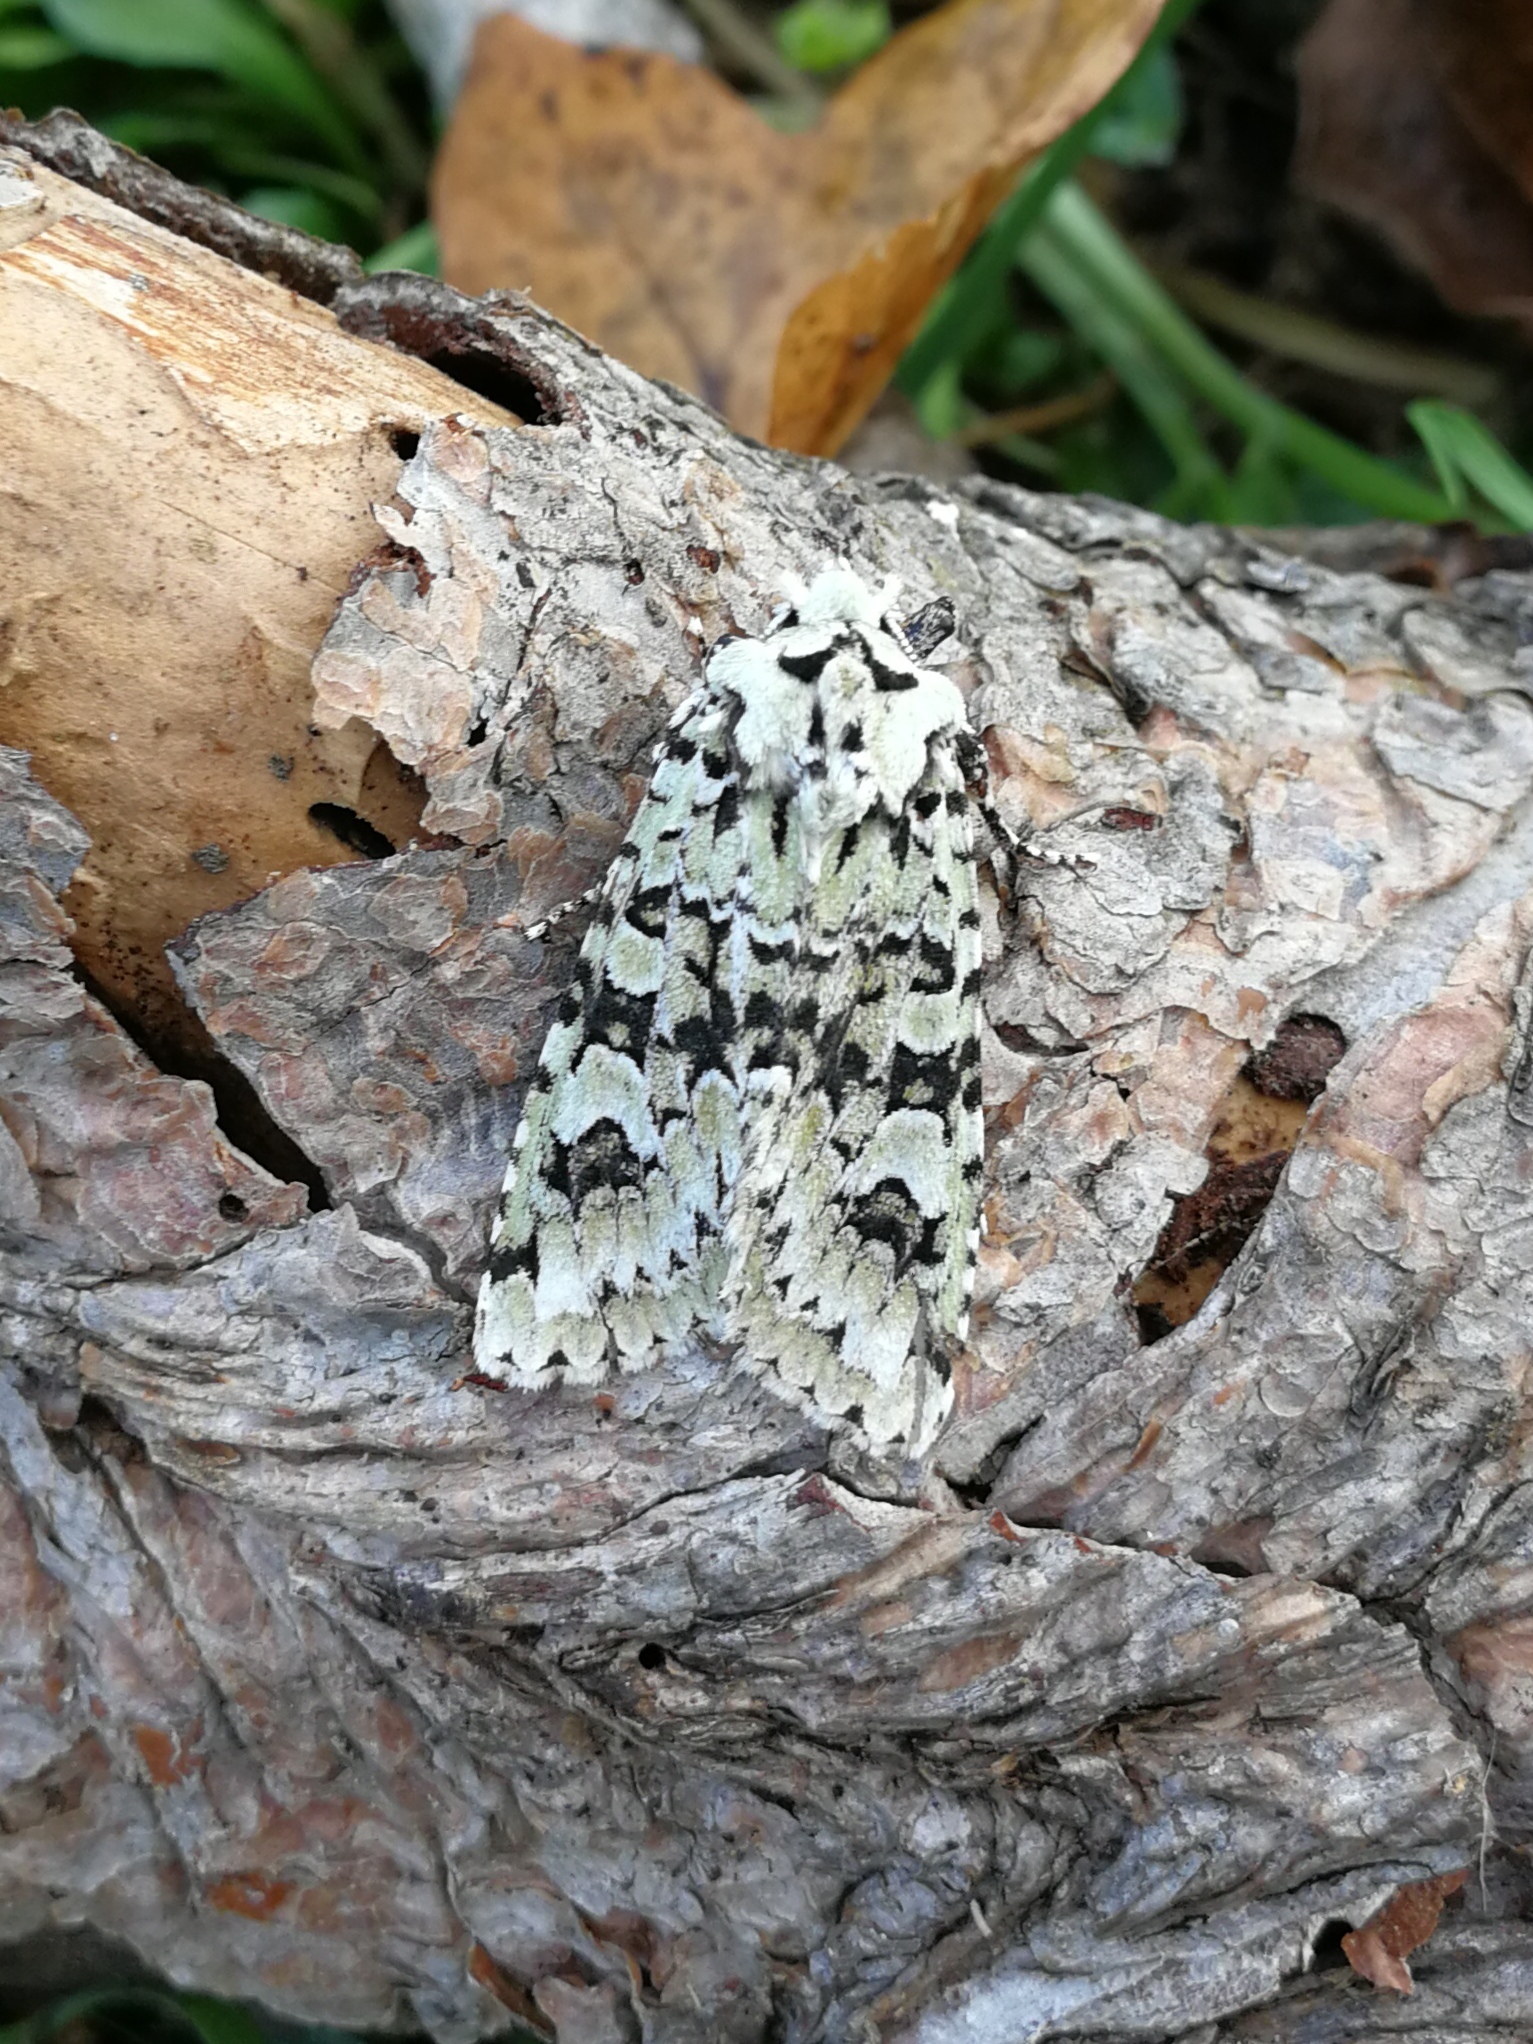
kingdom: Animalia
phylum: Arthropoda
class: Insecta
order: Lepidoptera
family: Noctuidae
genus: Griposia
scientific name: Griposia aprilina
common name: Merveille du jour
